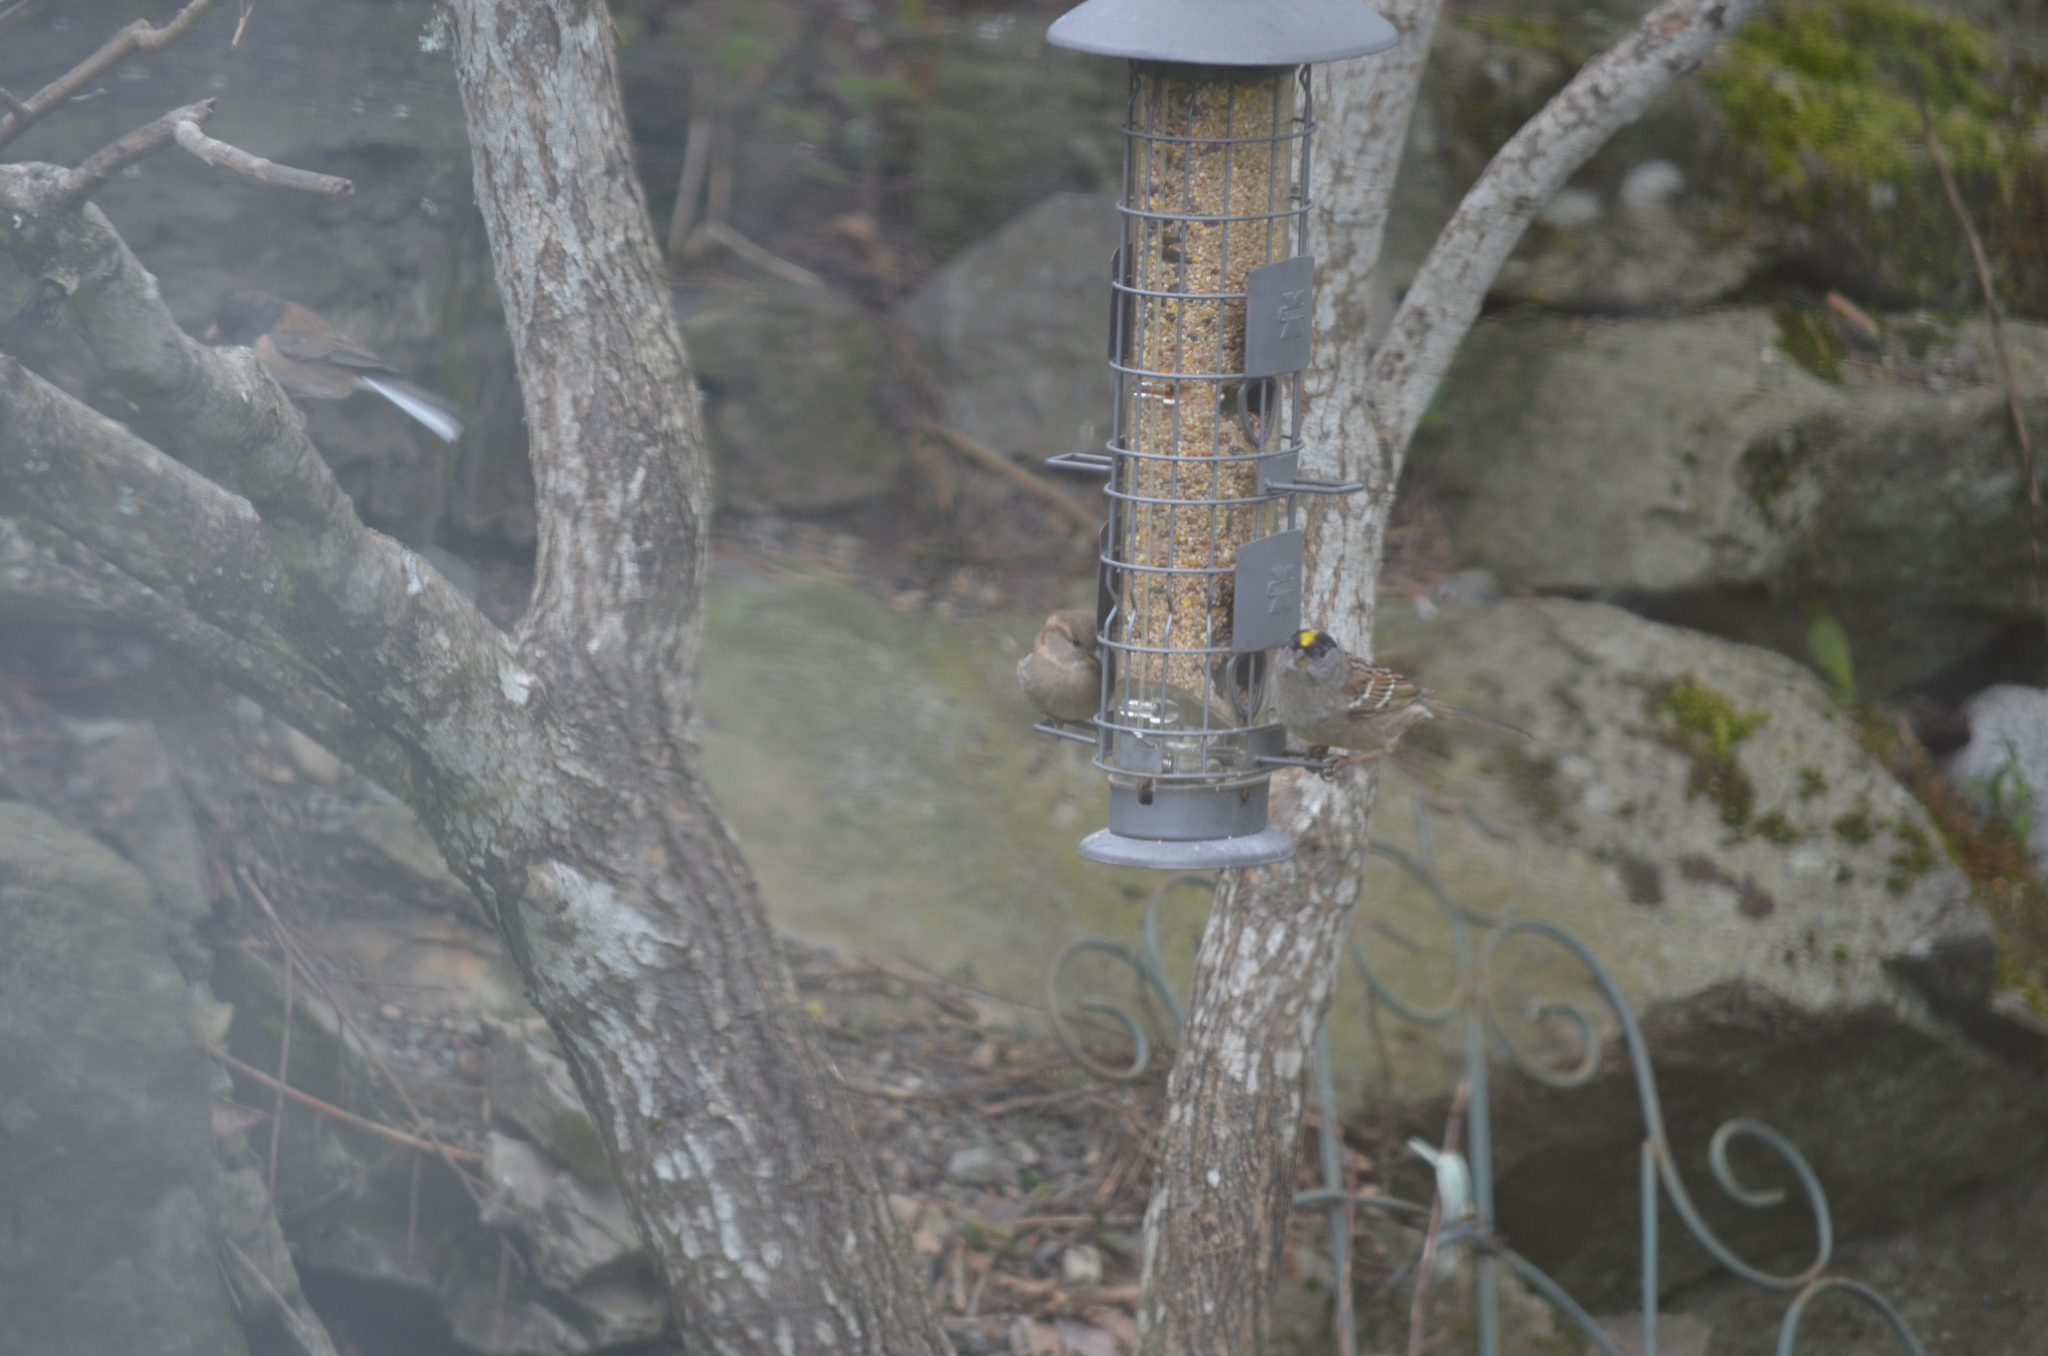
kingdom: Animalia
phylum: Chordata
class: Aves
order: Passeriformes
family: Passerellidae
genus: Zonotrichia
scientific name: Zonotrichia atricapilla
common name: Golden-crowned sparrow
